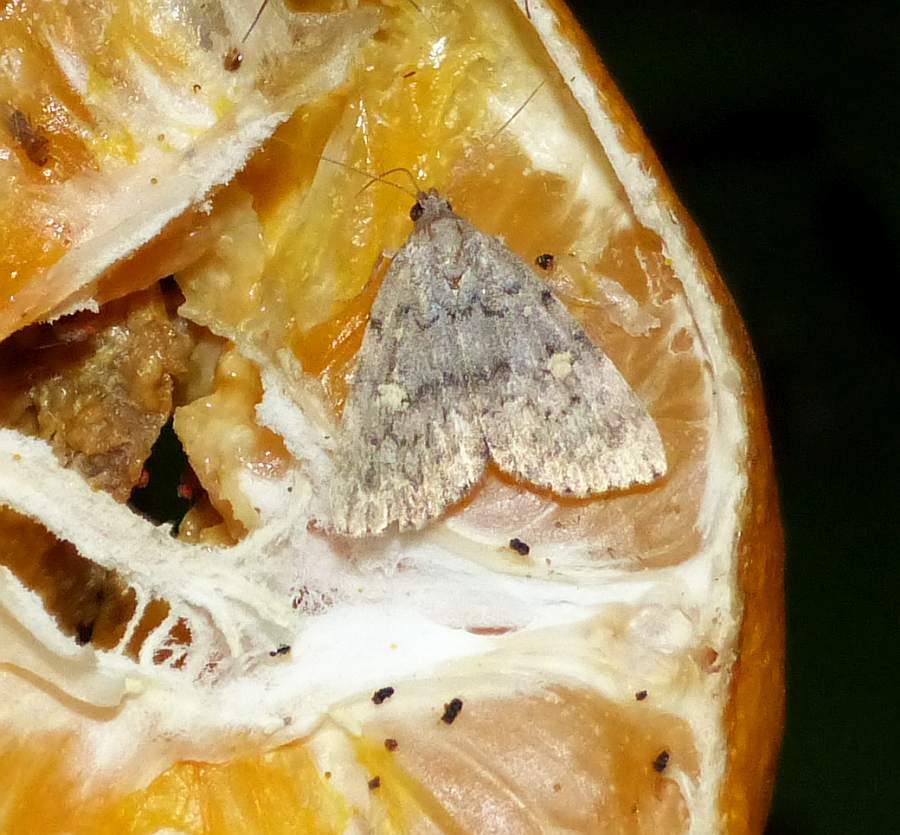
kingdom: Animalia
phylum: Arthropoda
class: Insecta
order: Lepidoptera
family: Erebidae
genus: Idia
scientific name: Idia aemula
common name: Common idia moth
